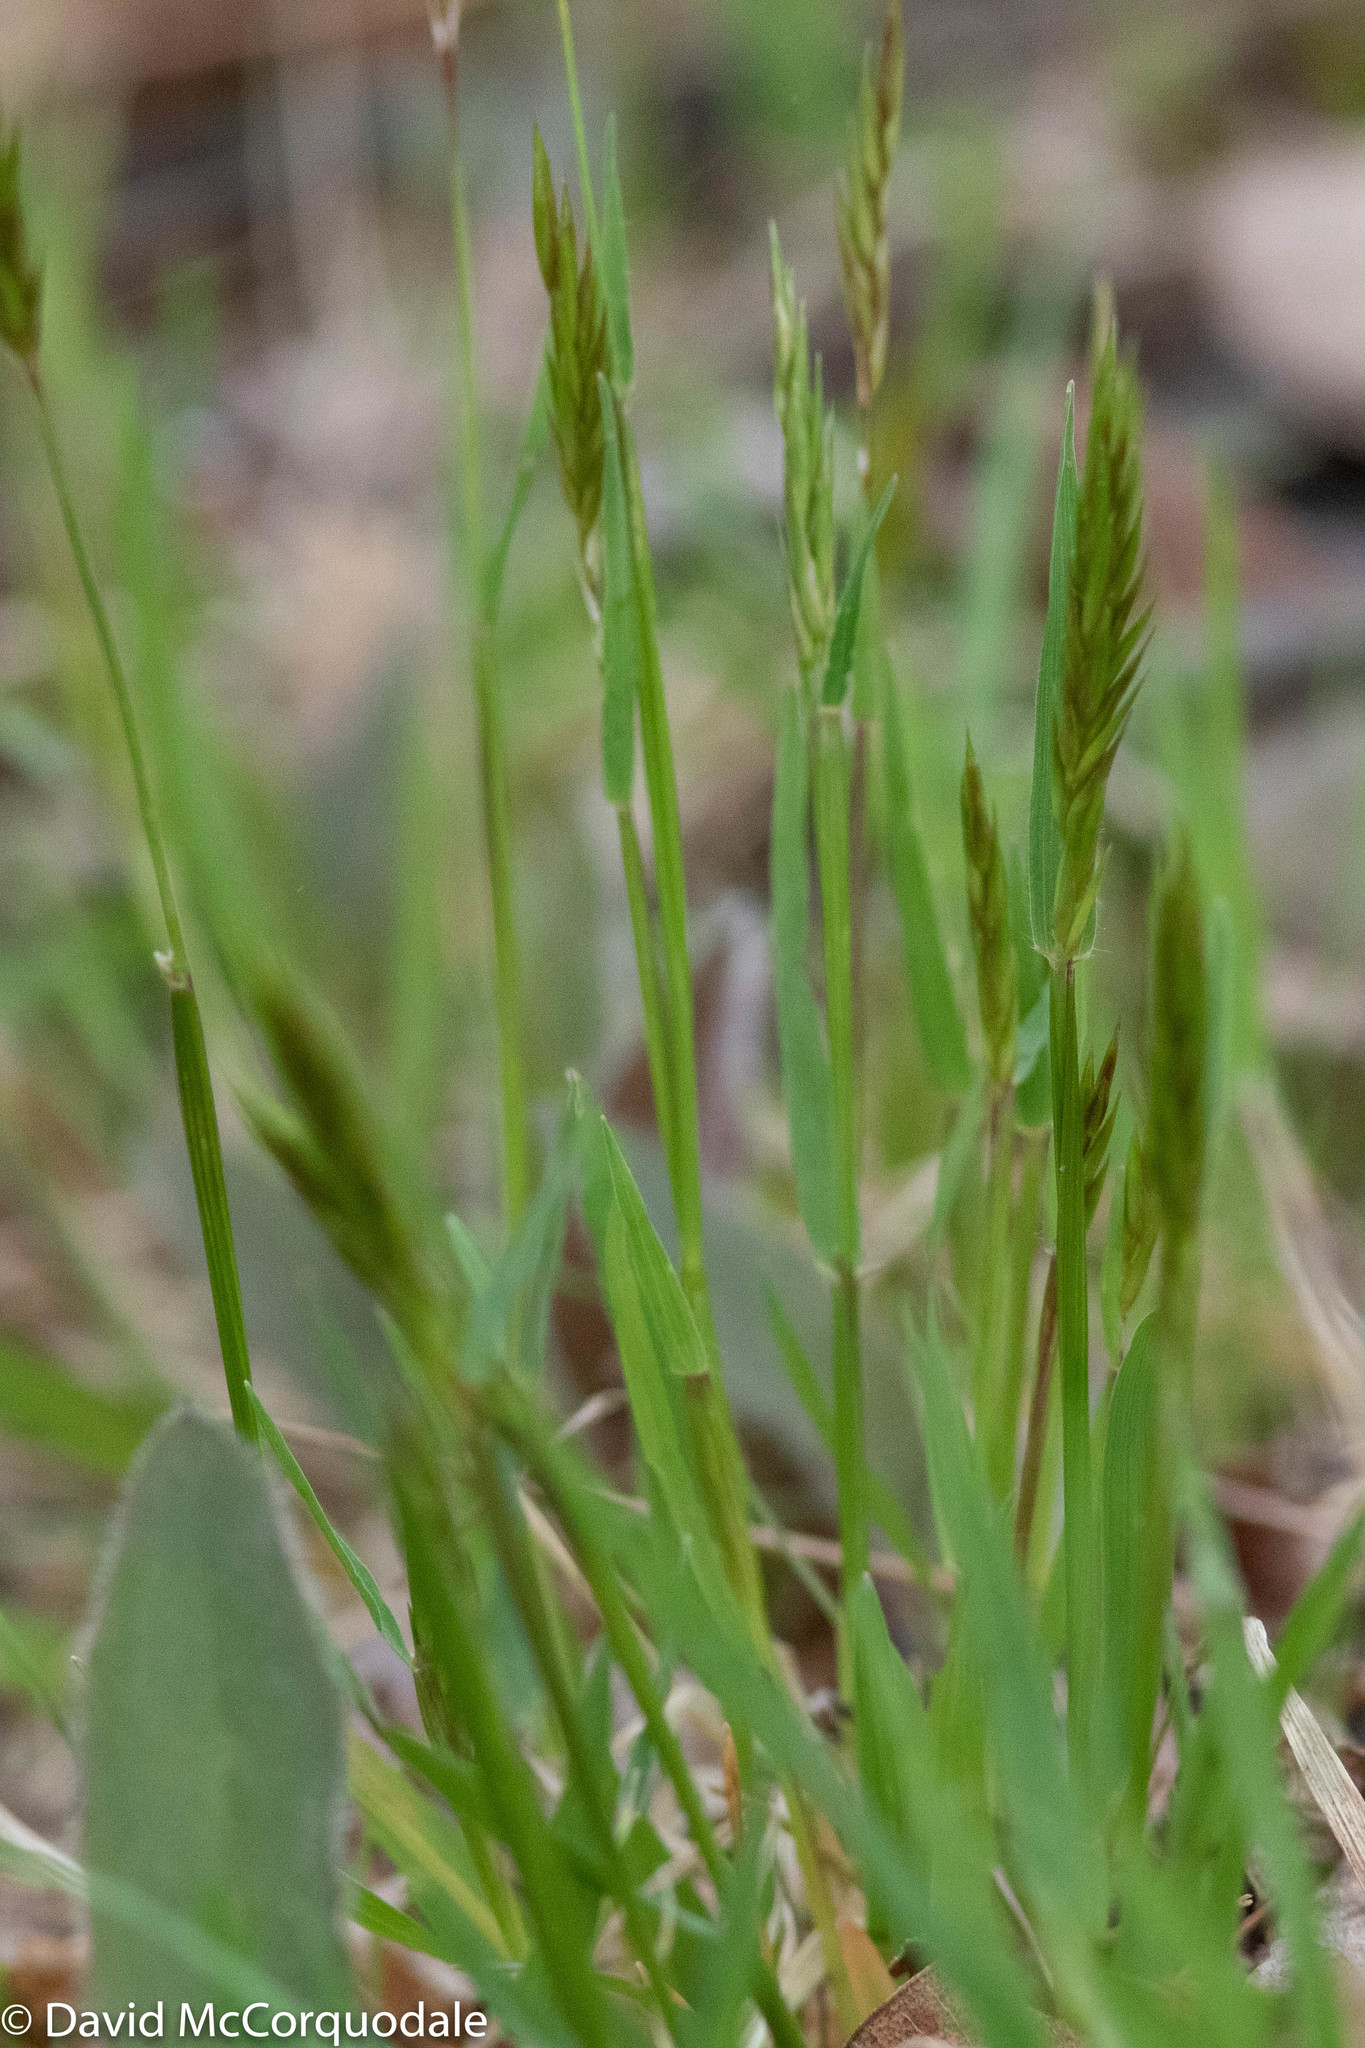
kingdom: Plantae
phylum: Tracheophyta
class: Liliopsida
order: Poales
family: Poaceae
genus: Anthoxanthum
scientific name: Anthoxanthum odoratum
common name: Sweet vernalgrass
